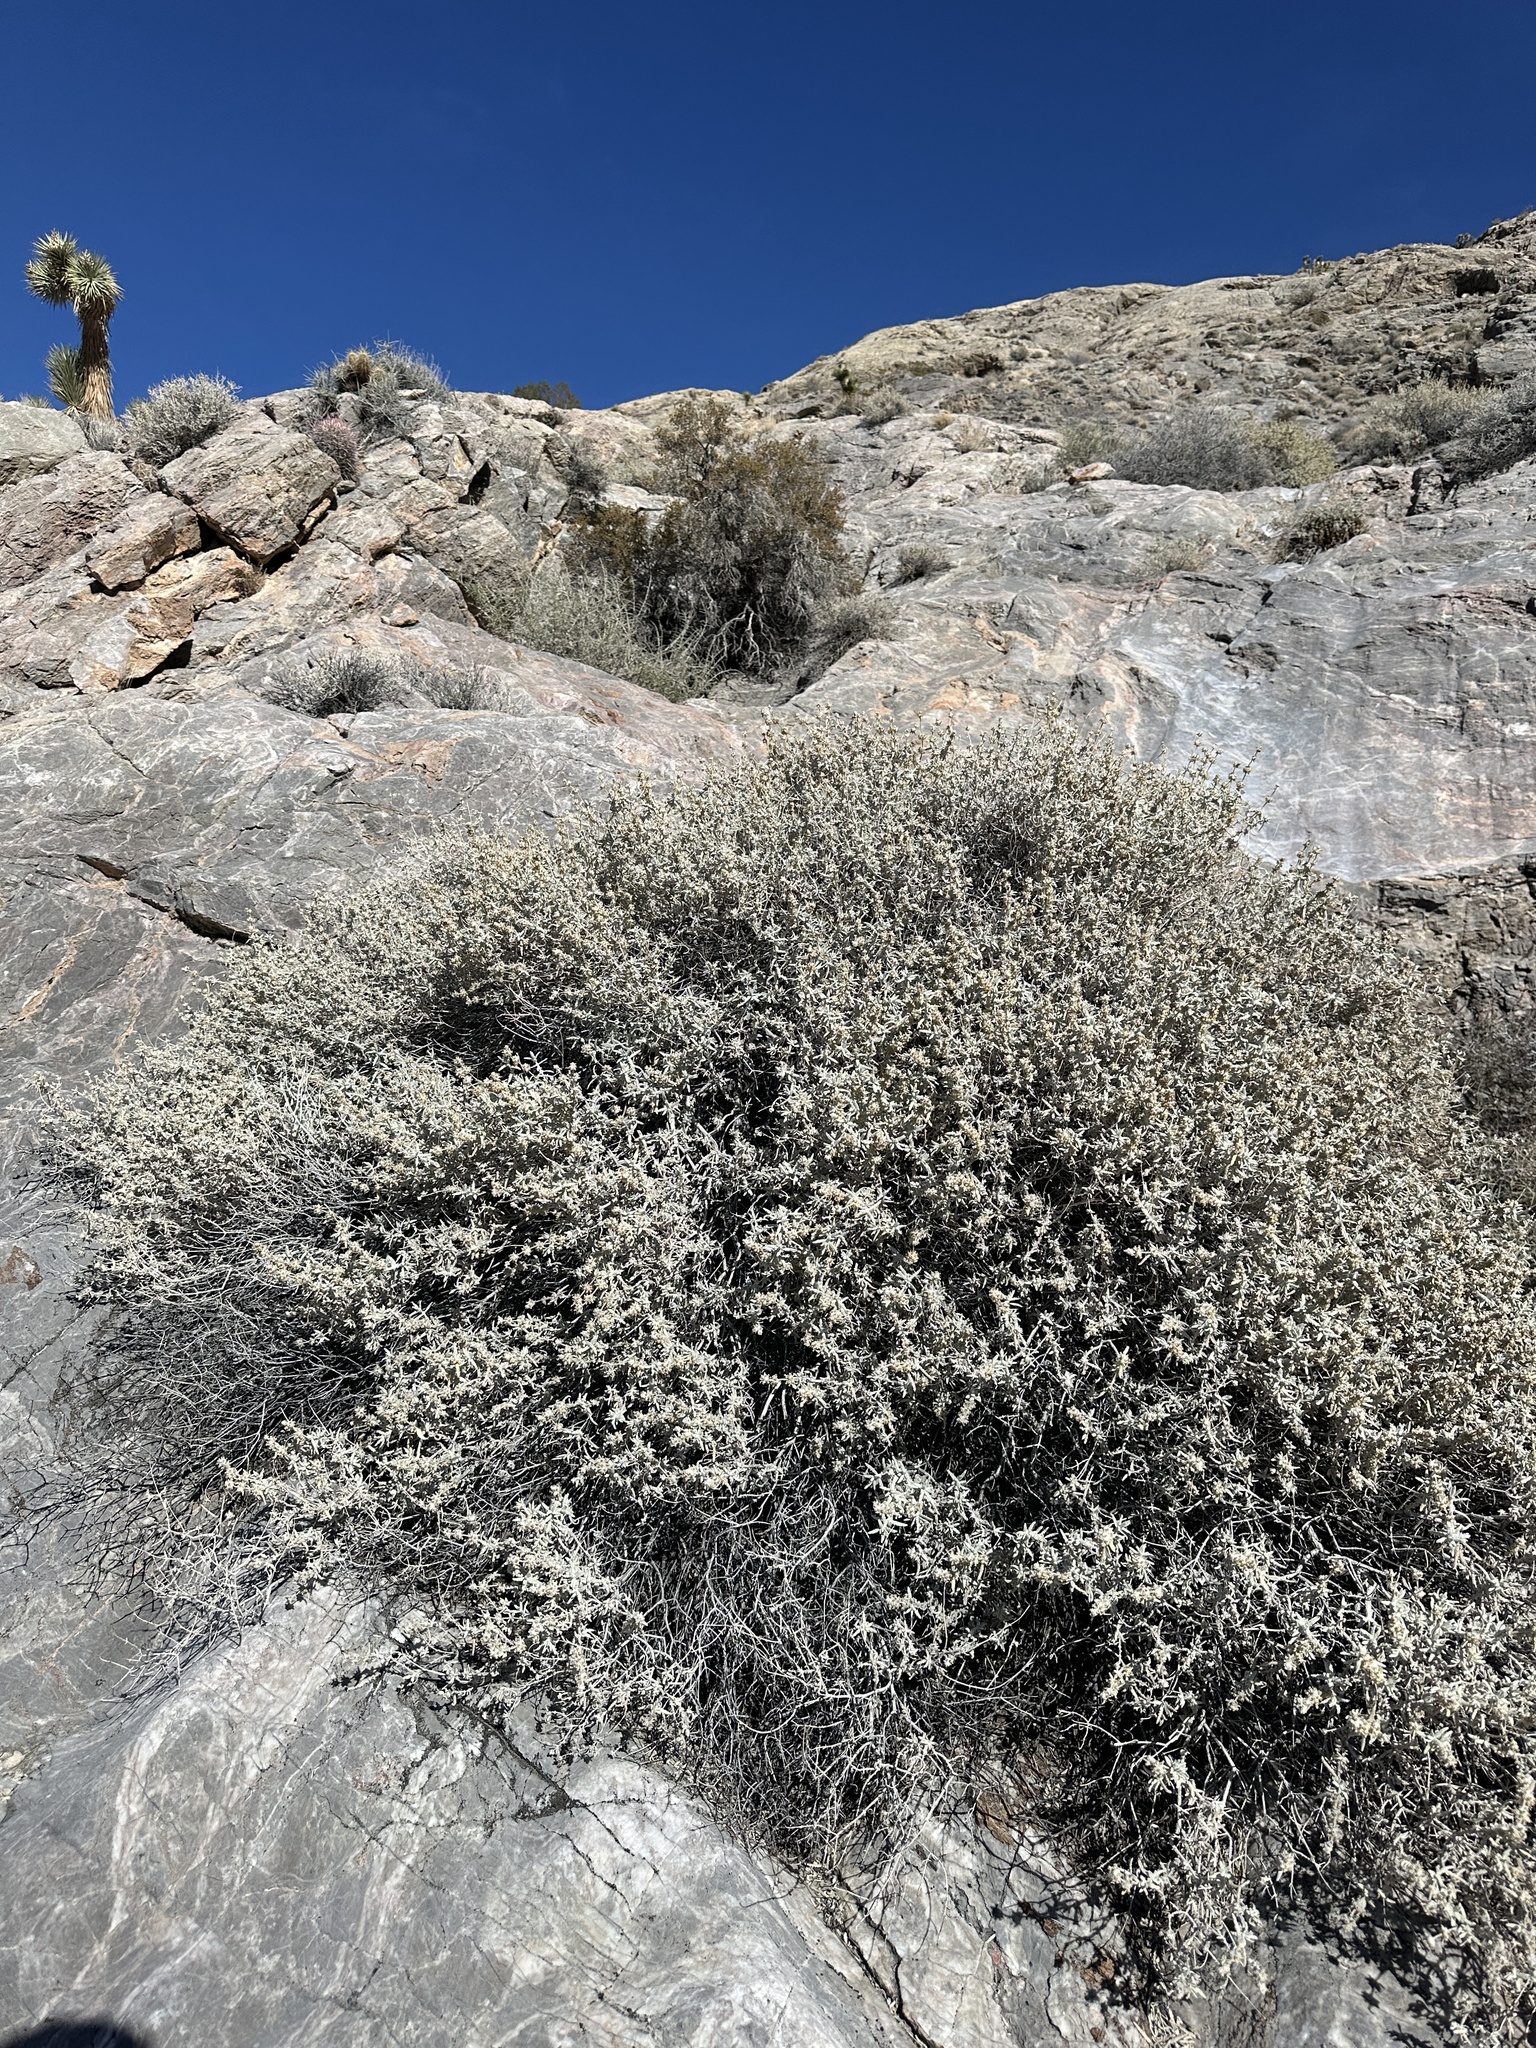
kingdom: Plantae
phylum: Tracheophyta
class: Magnoliopsida
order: Lamiales
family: Scrophulariaceae
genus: Buddleja
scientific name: Buddleja utahensis
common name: Utah butterfly-bush
